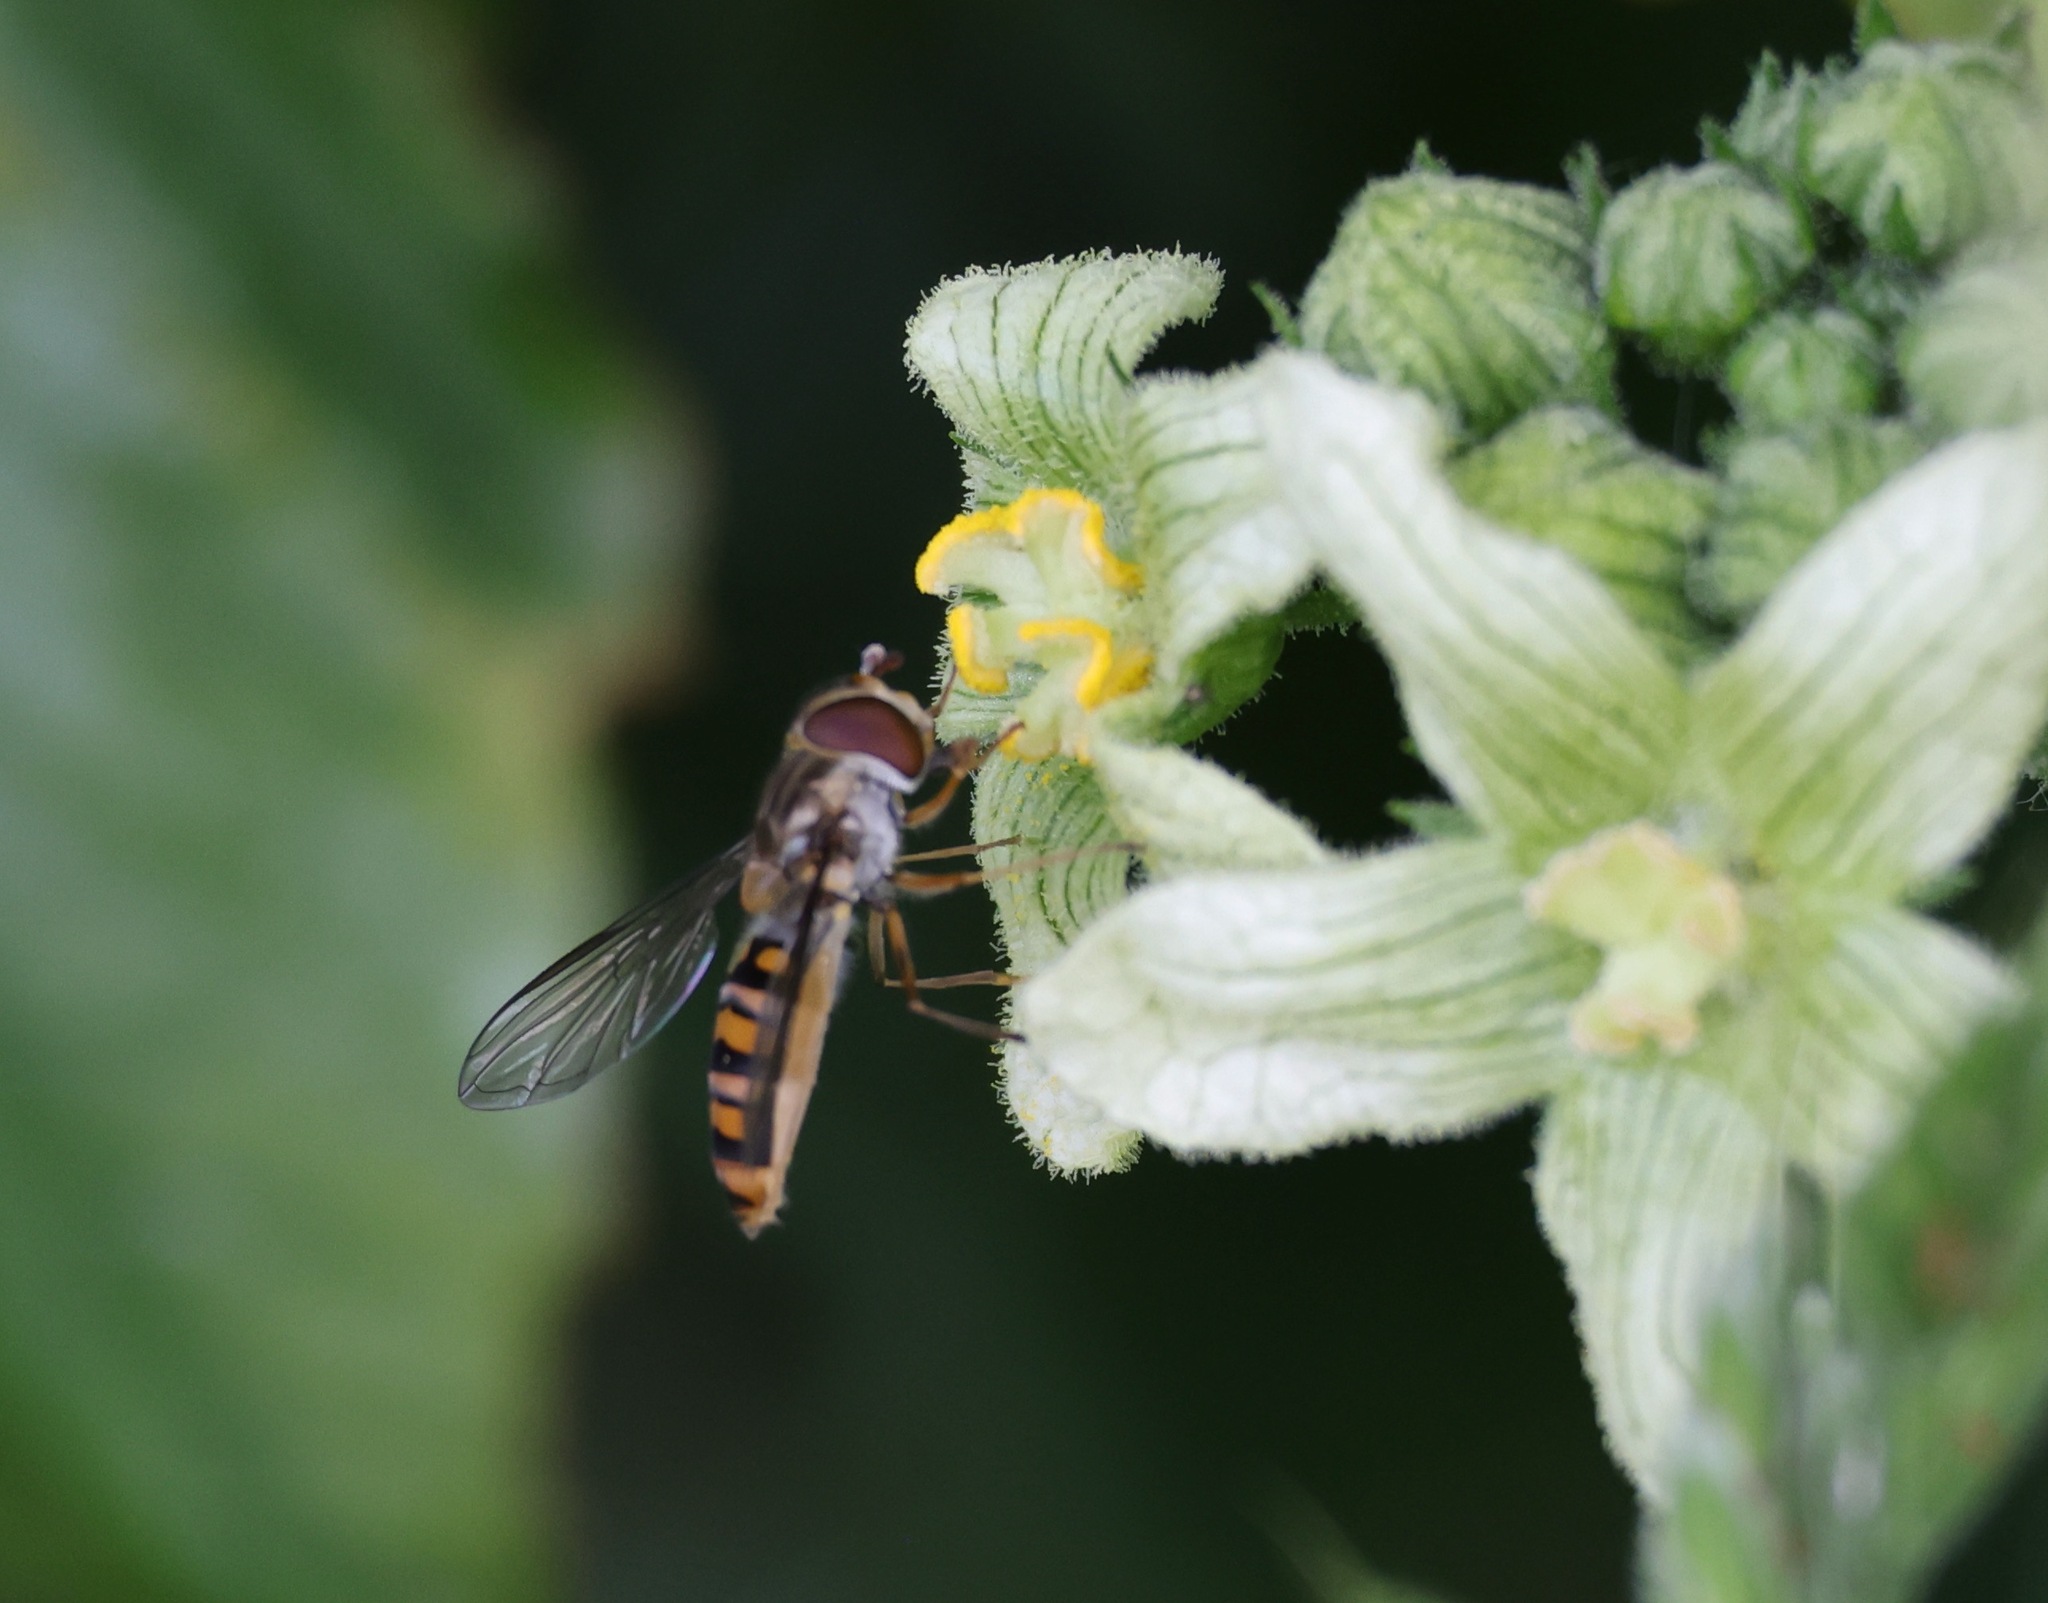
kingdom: Animalia
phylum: Arthropoda
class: Insecta
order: Diptera
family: Syrphidae
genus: Episyrphus
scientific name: Episyrphus balteatus
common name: Marmalade hoverfly
